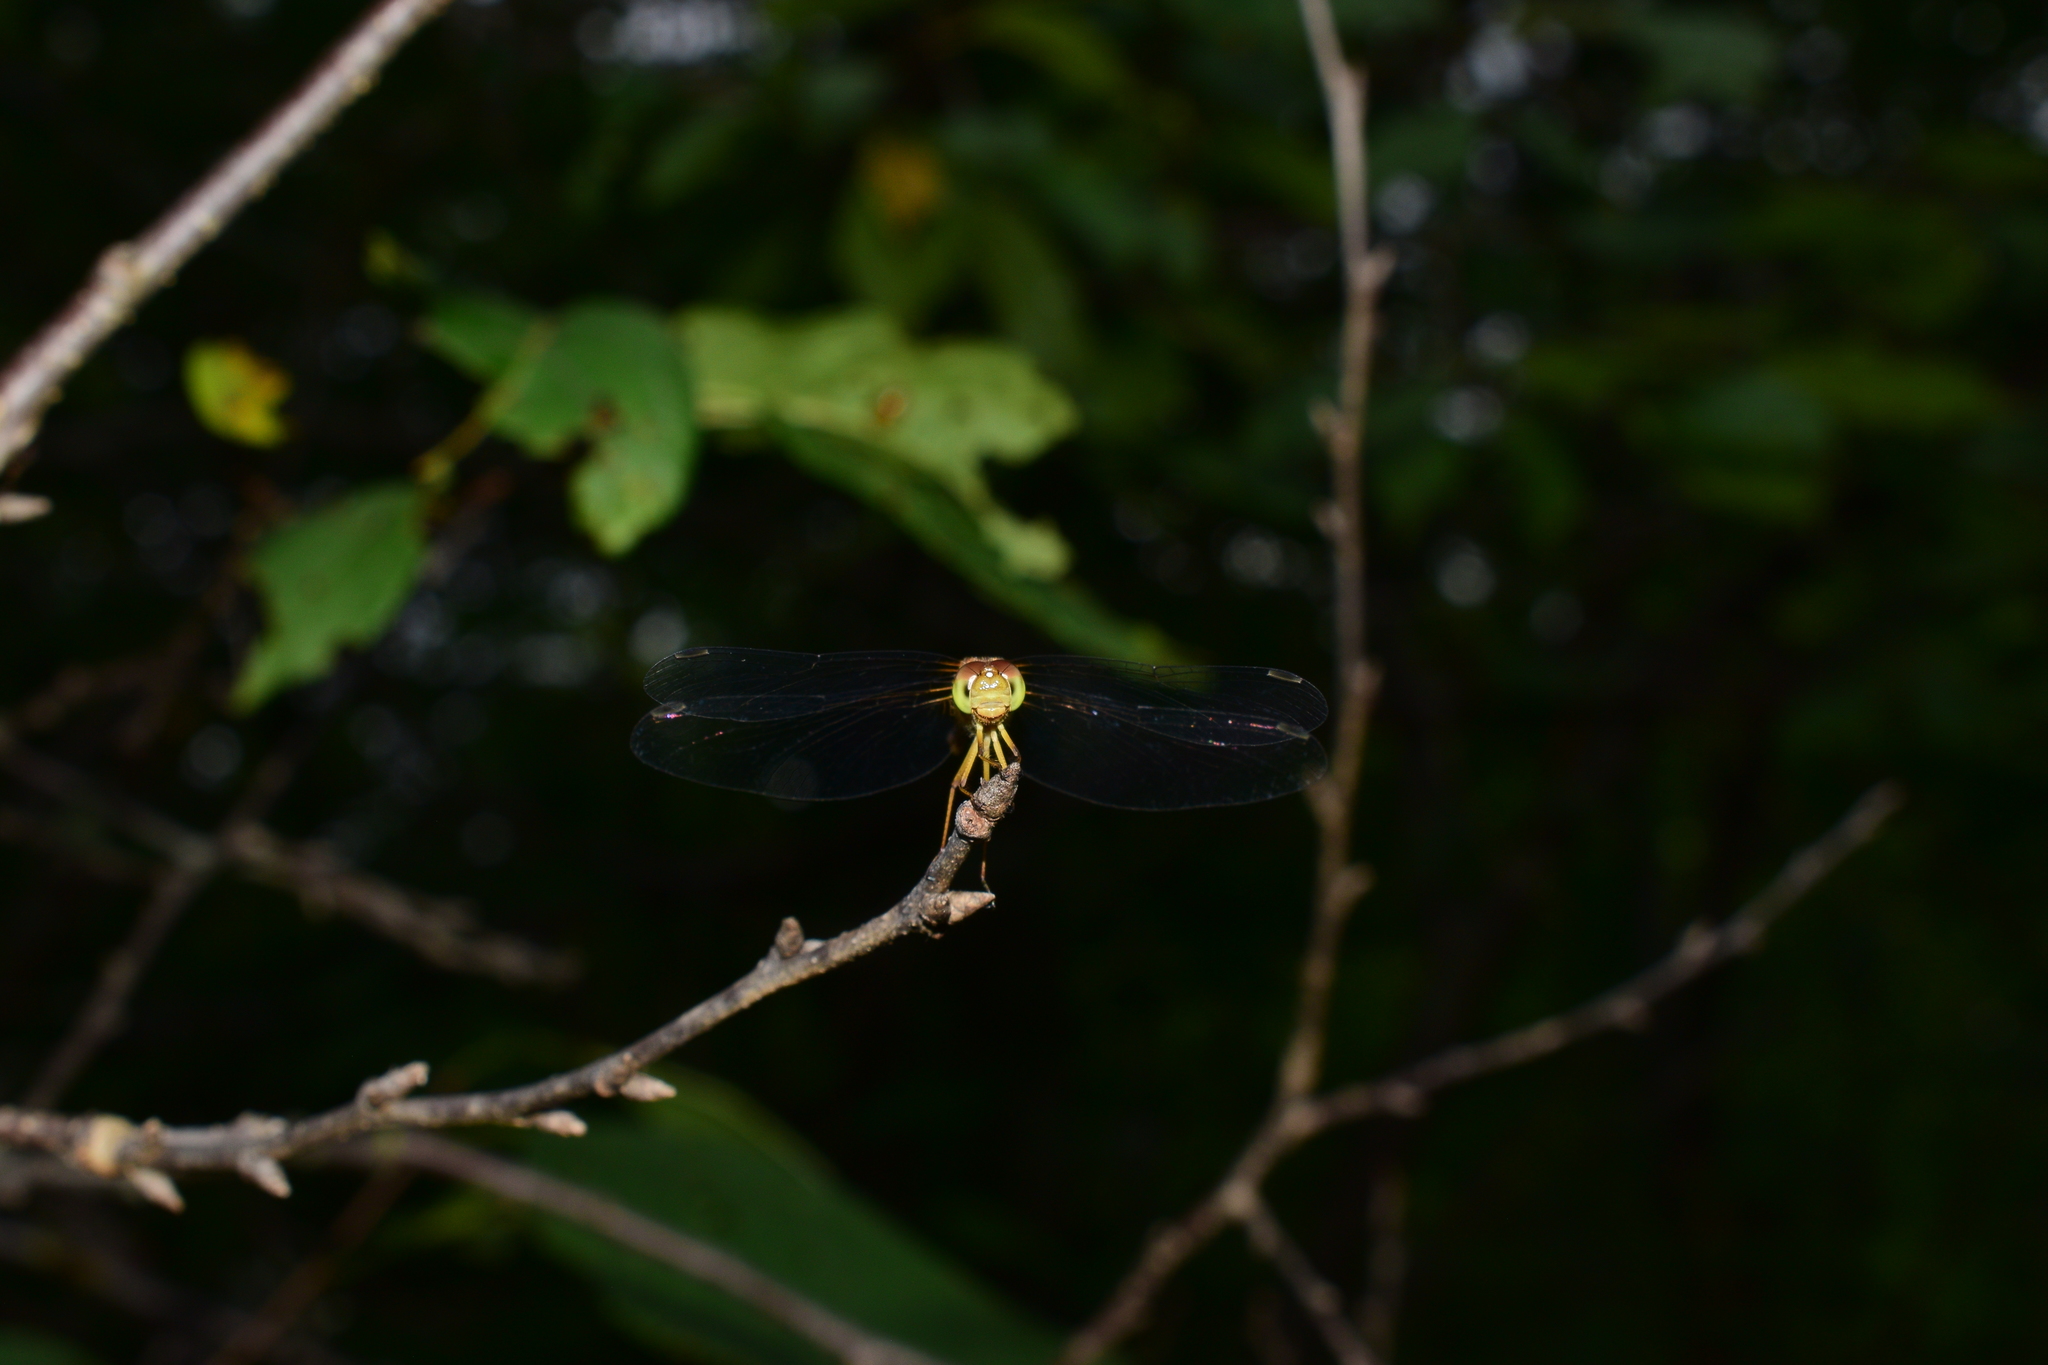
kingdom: Animalia
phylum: Arthropoda
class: Insecta
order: Odonata
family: Libellulidae
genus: Sympetrum
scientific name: Sympetrum vicinum
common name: Autumn meadowhawk
